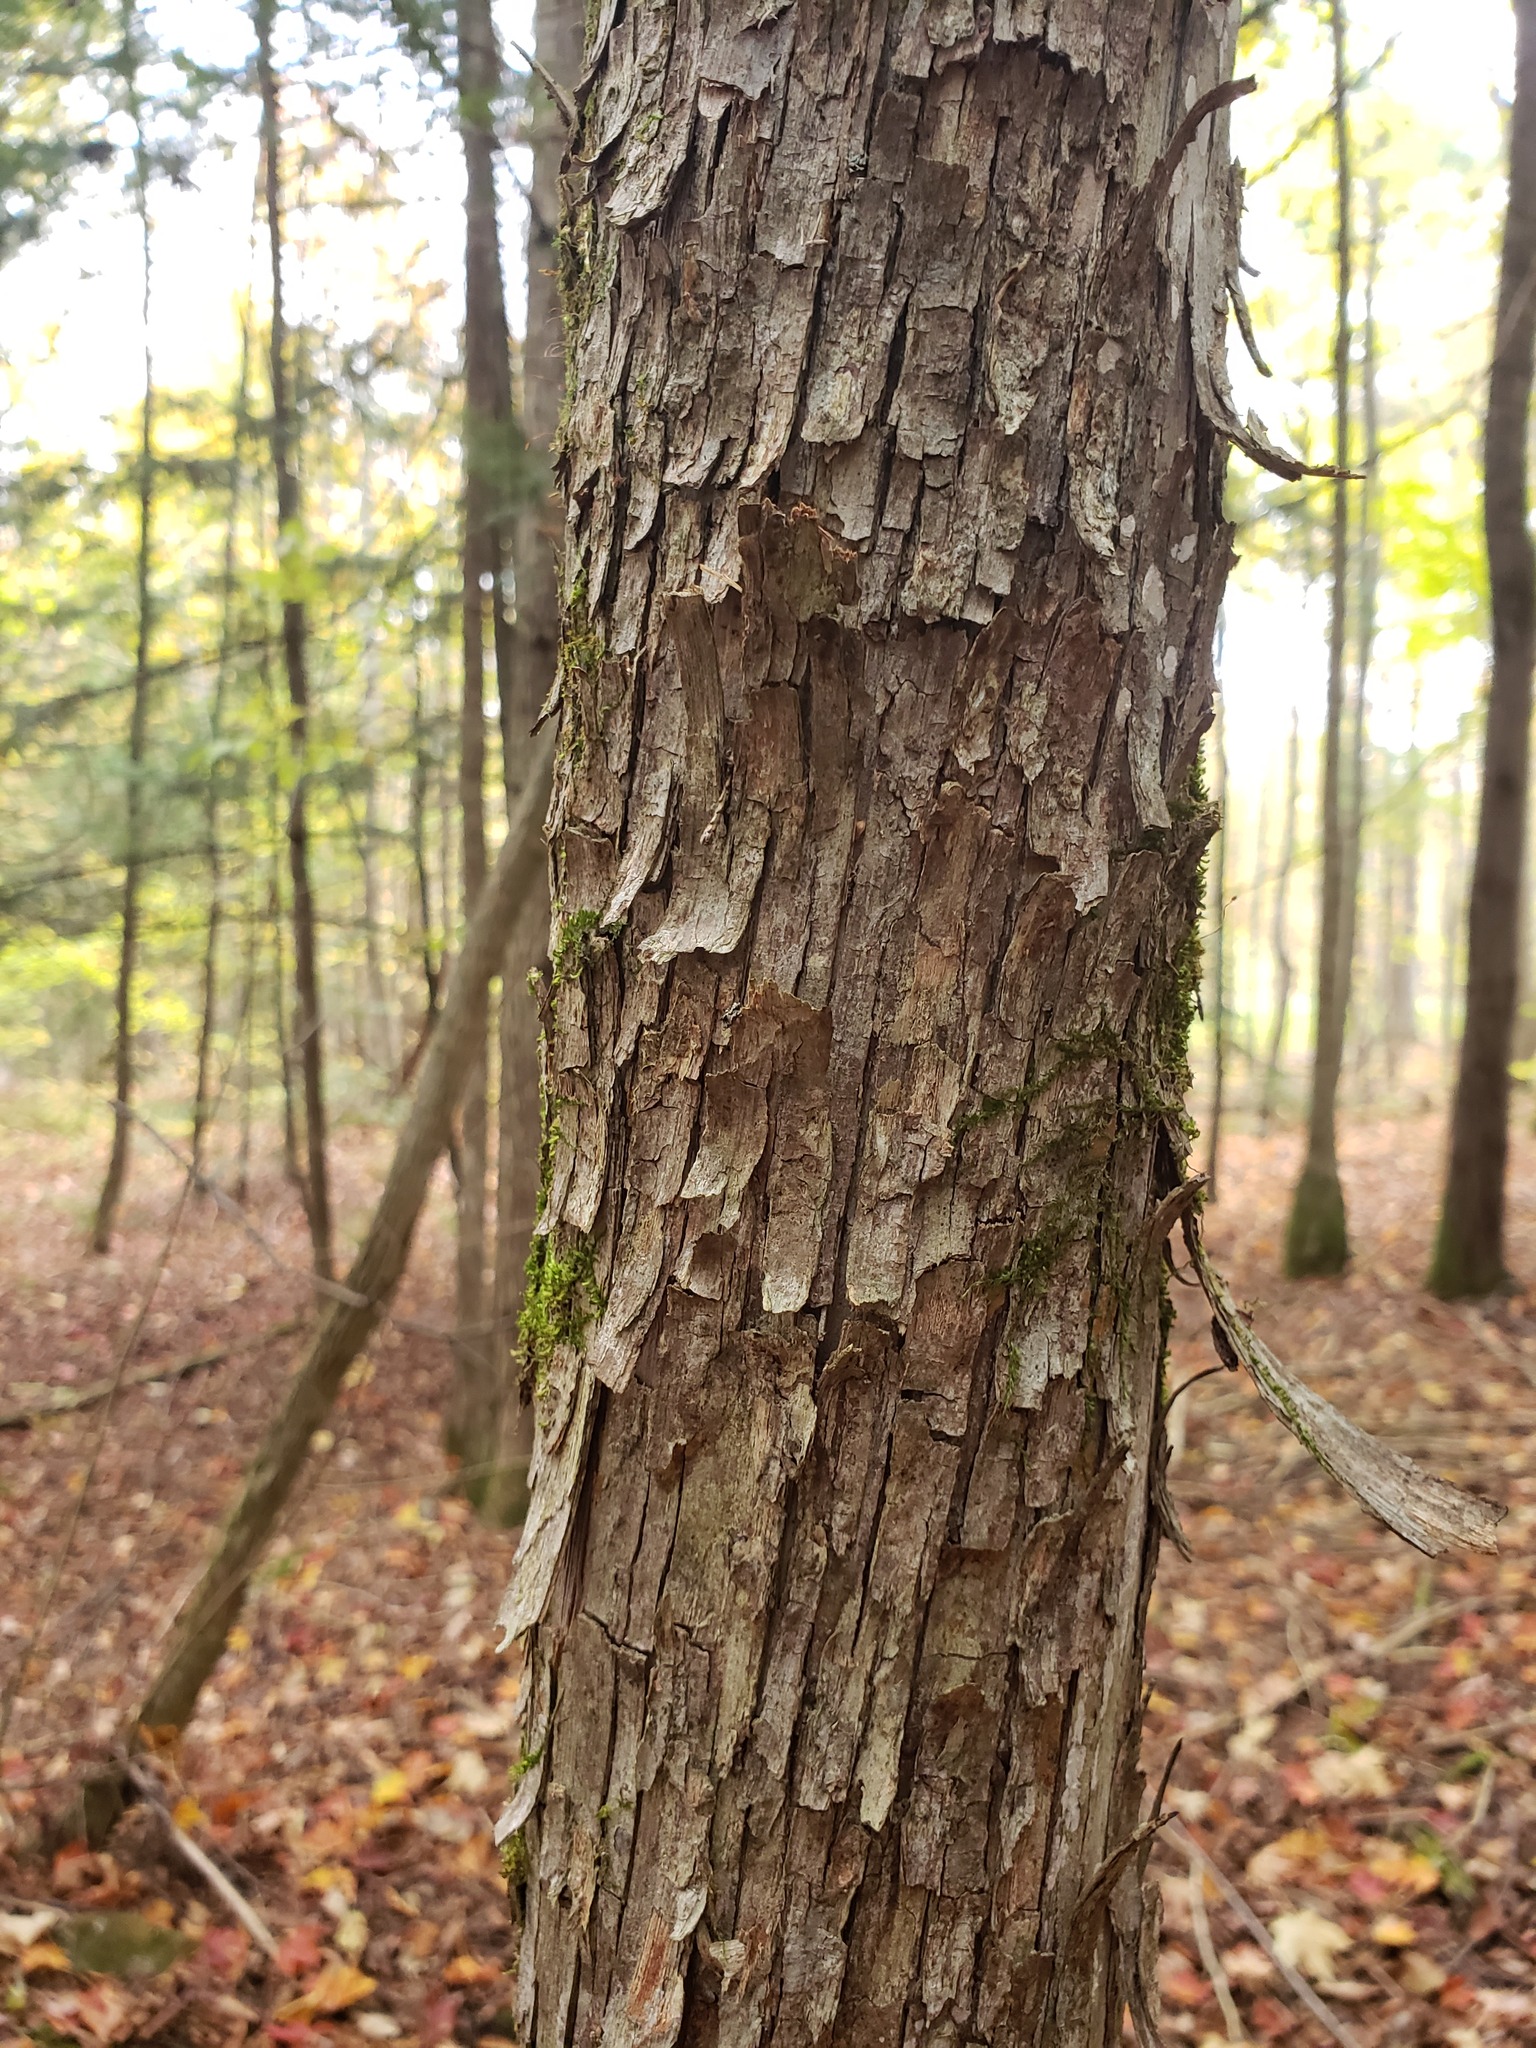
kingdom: Plantae
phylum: Tracheophyta
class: Magnoliopsida
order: Fagales
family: Betulaceae
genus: Ostrya
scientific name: Ostrya virginiana
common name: Ironwood
